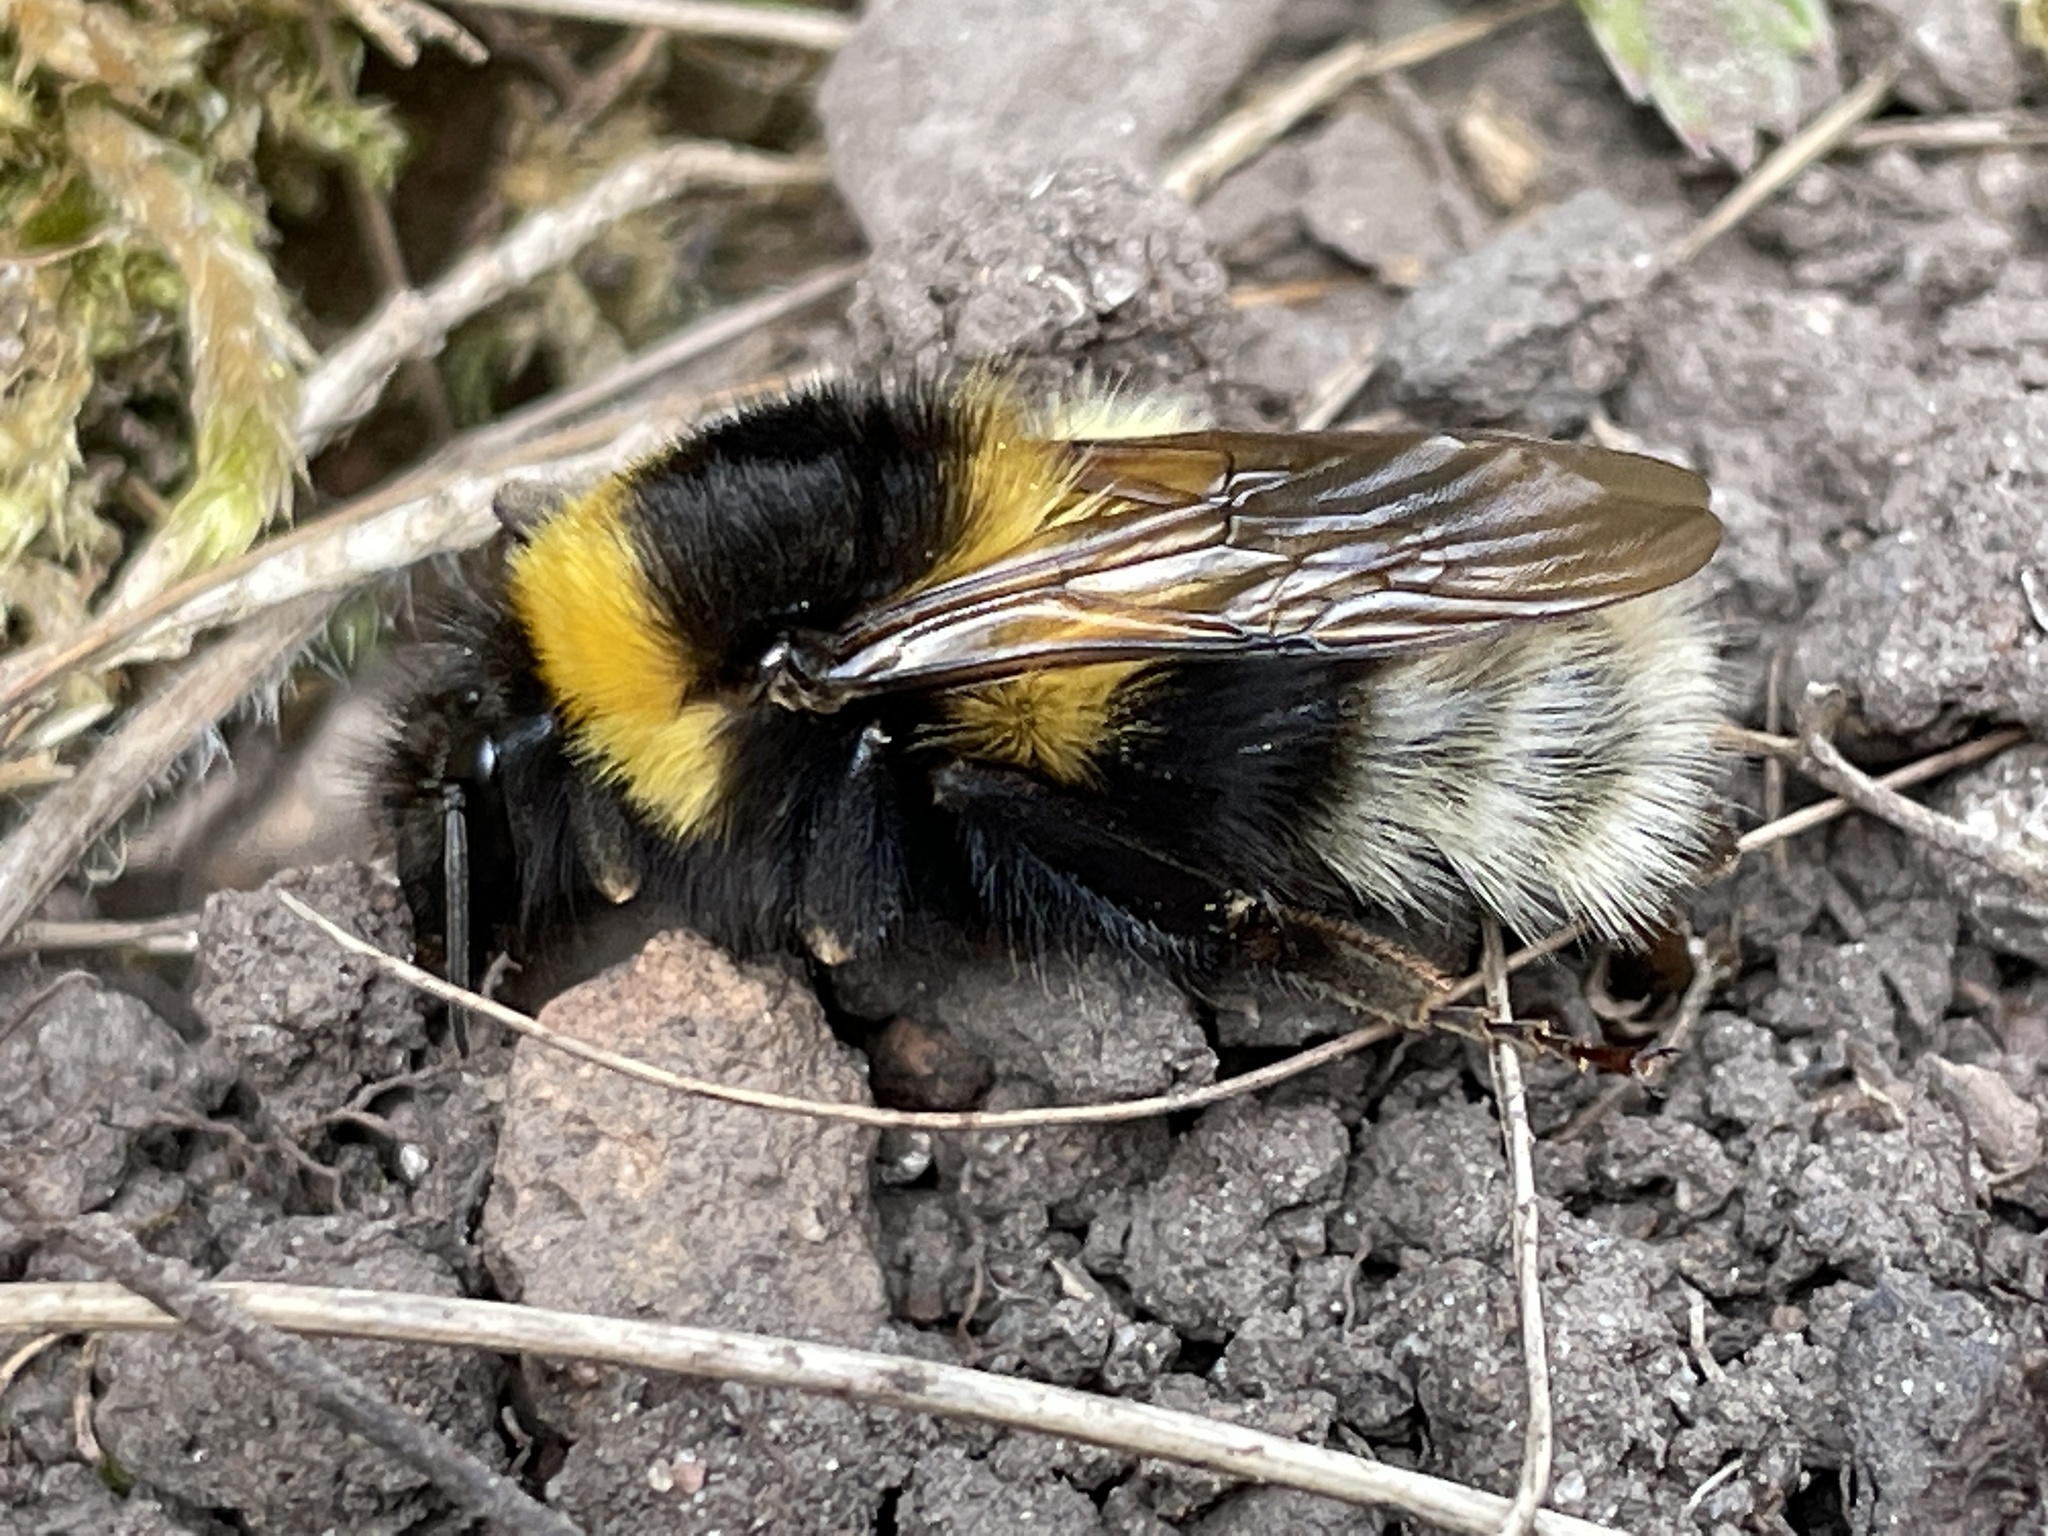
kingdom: Animalia
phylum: Arthropoda
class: Insecta
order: Hymenoptera
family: Apidae
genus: Bombus
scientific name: Bombus hortorum
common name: Garden bumblebee
